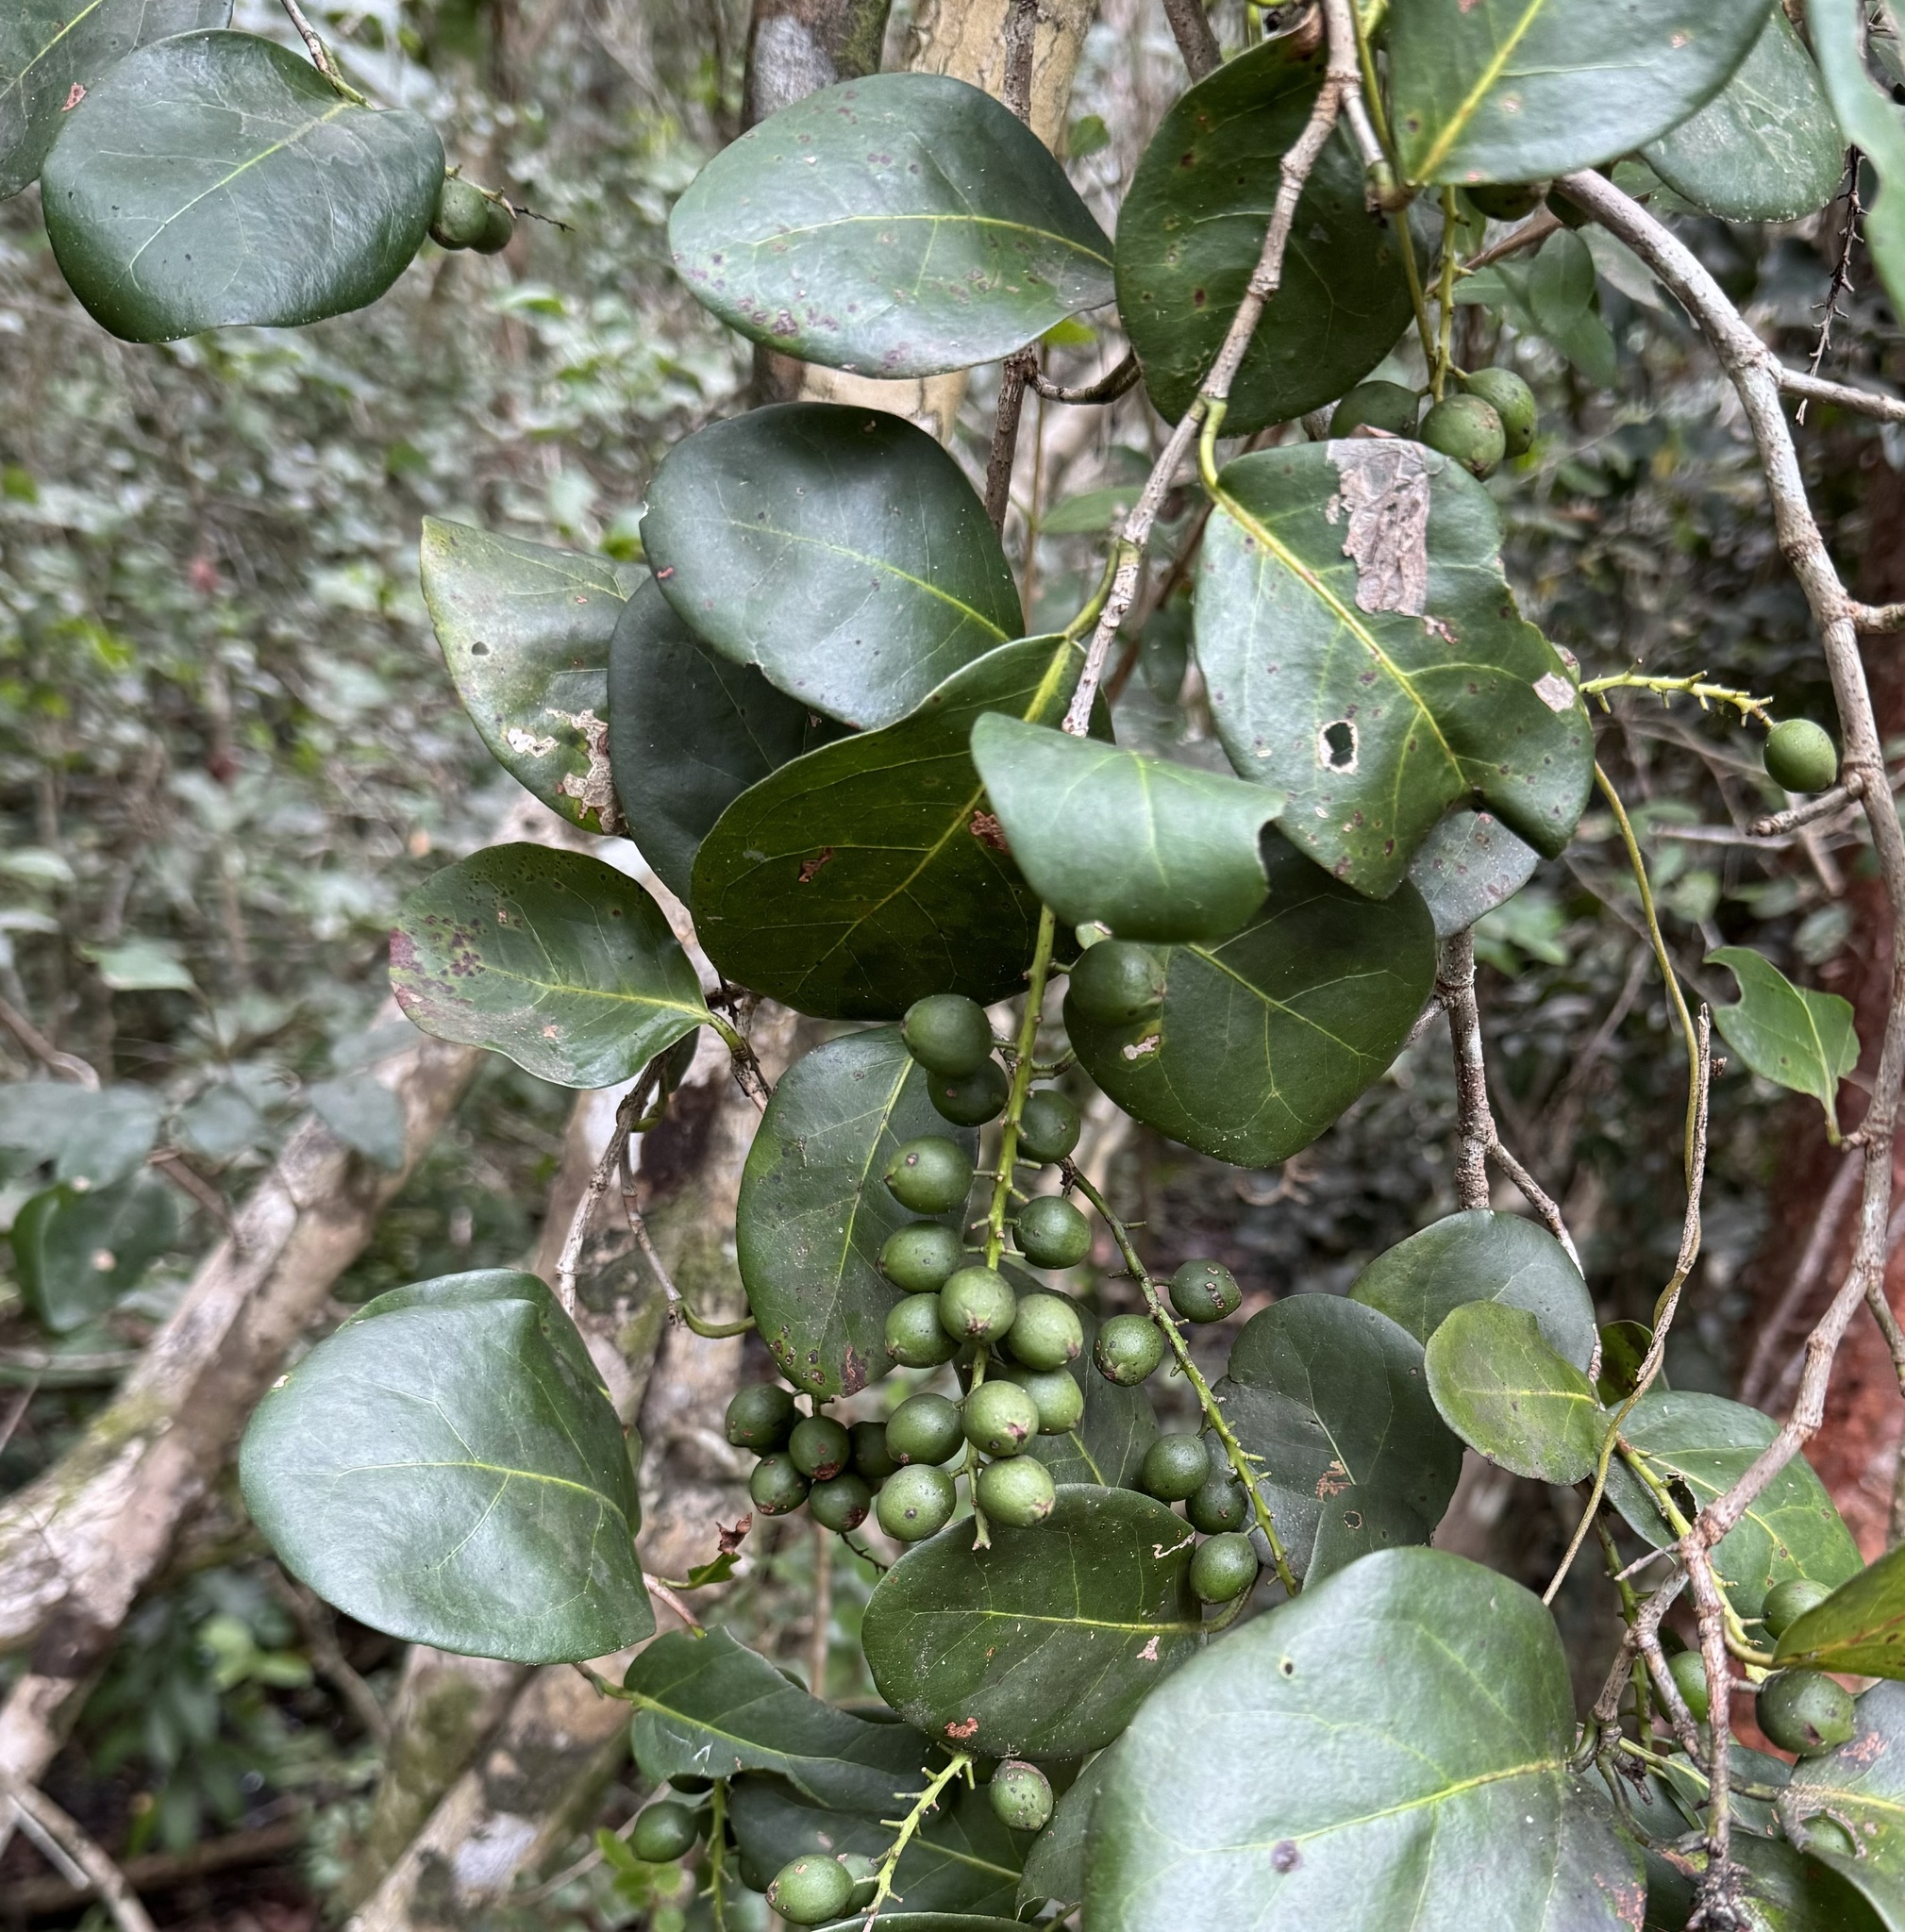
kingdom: Plantae
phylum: Tracheophyta
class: Magnoliopsida
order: Caryophyllales
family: Polygonaceae
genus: Coccoloba
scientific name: Coccoloba diversifolia
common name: Pigeon-plum
